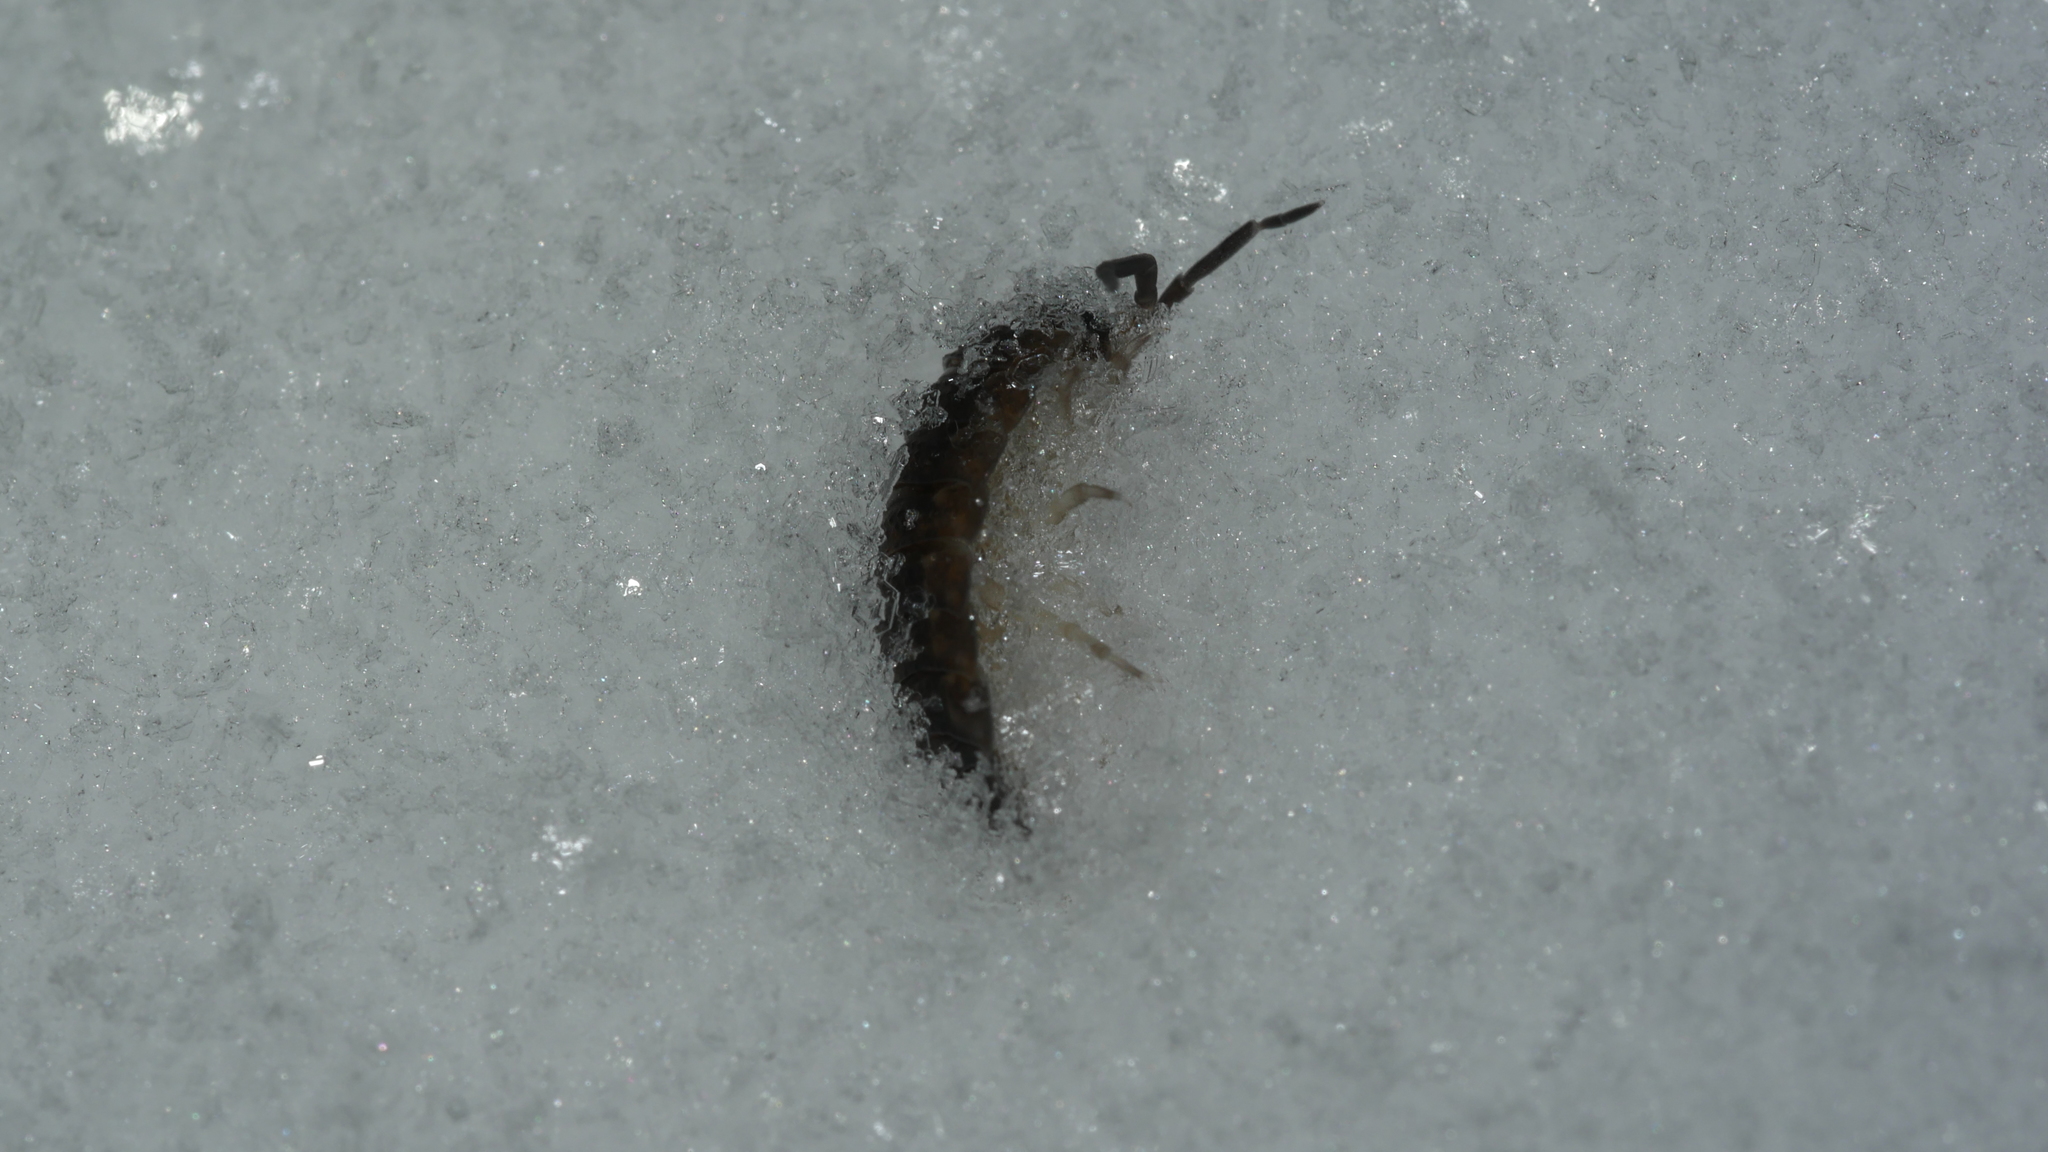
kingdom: Animalia
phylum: Arthropoda
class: Malacostraca
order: Isopoda
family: Porcellionidae
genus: Porcellio
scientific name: Porcellio scaber
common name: Common rough woodlouse
